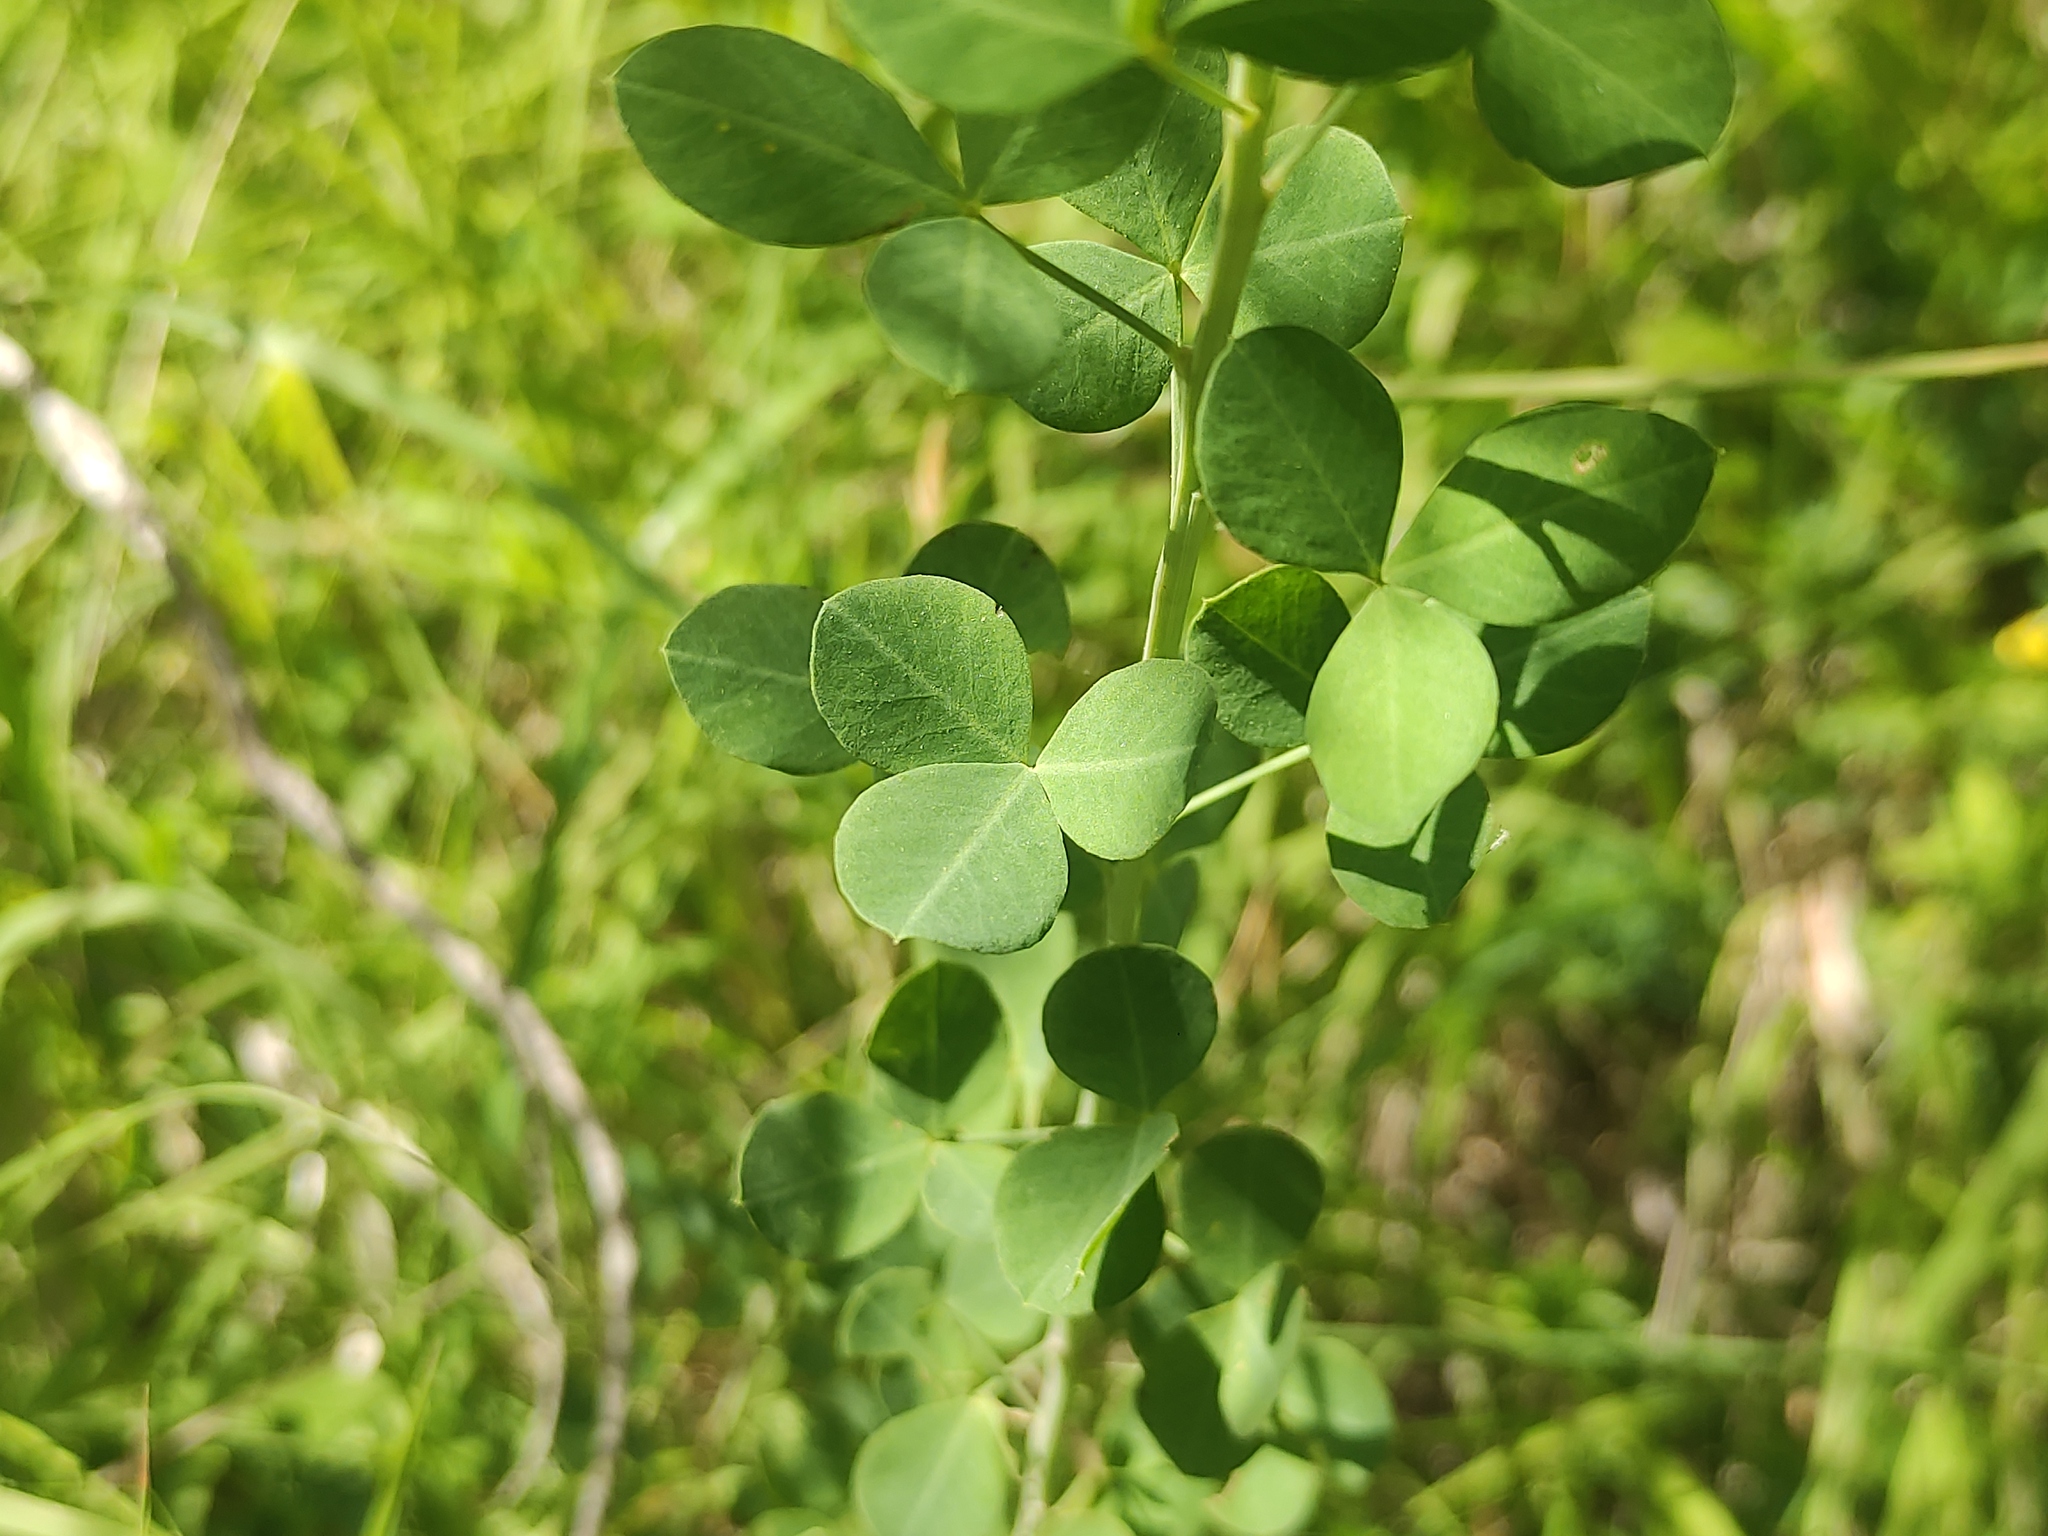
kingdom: Plantae
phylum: Tracheophyta
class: Magnoliopsida
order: Fabales
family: Fabaceae
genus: Cytisophyllum
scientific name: Cytisophyllum sessilifolium
